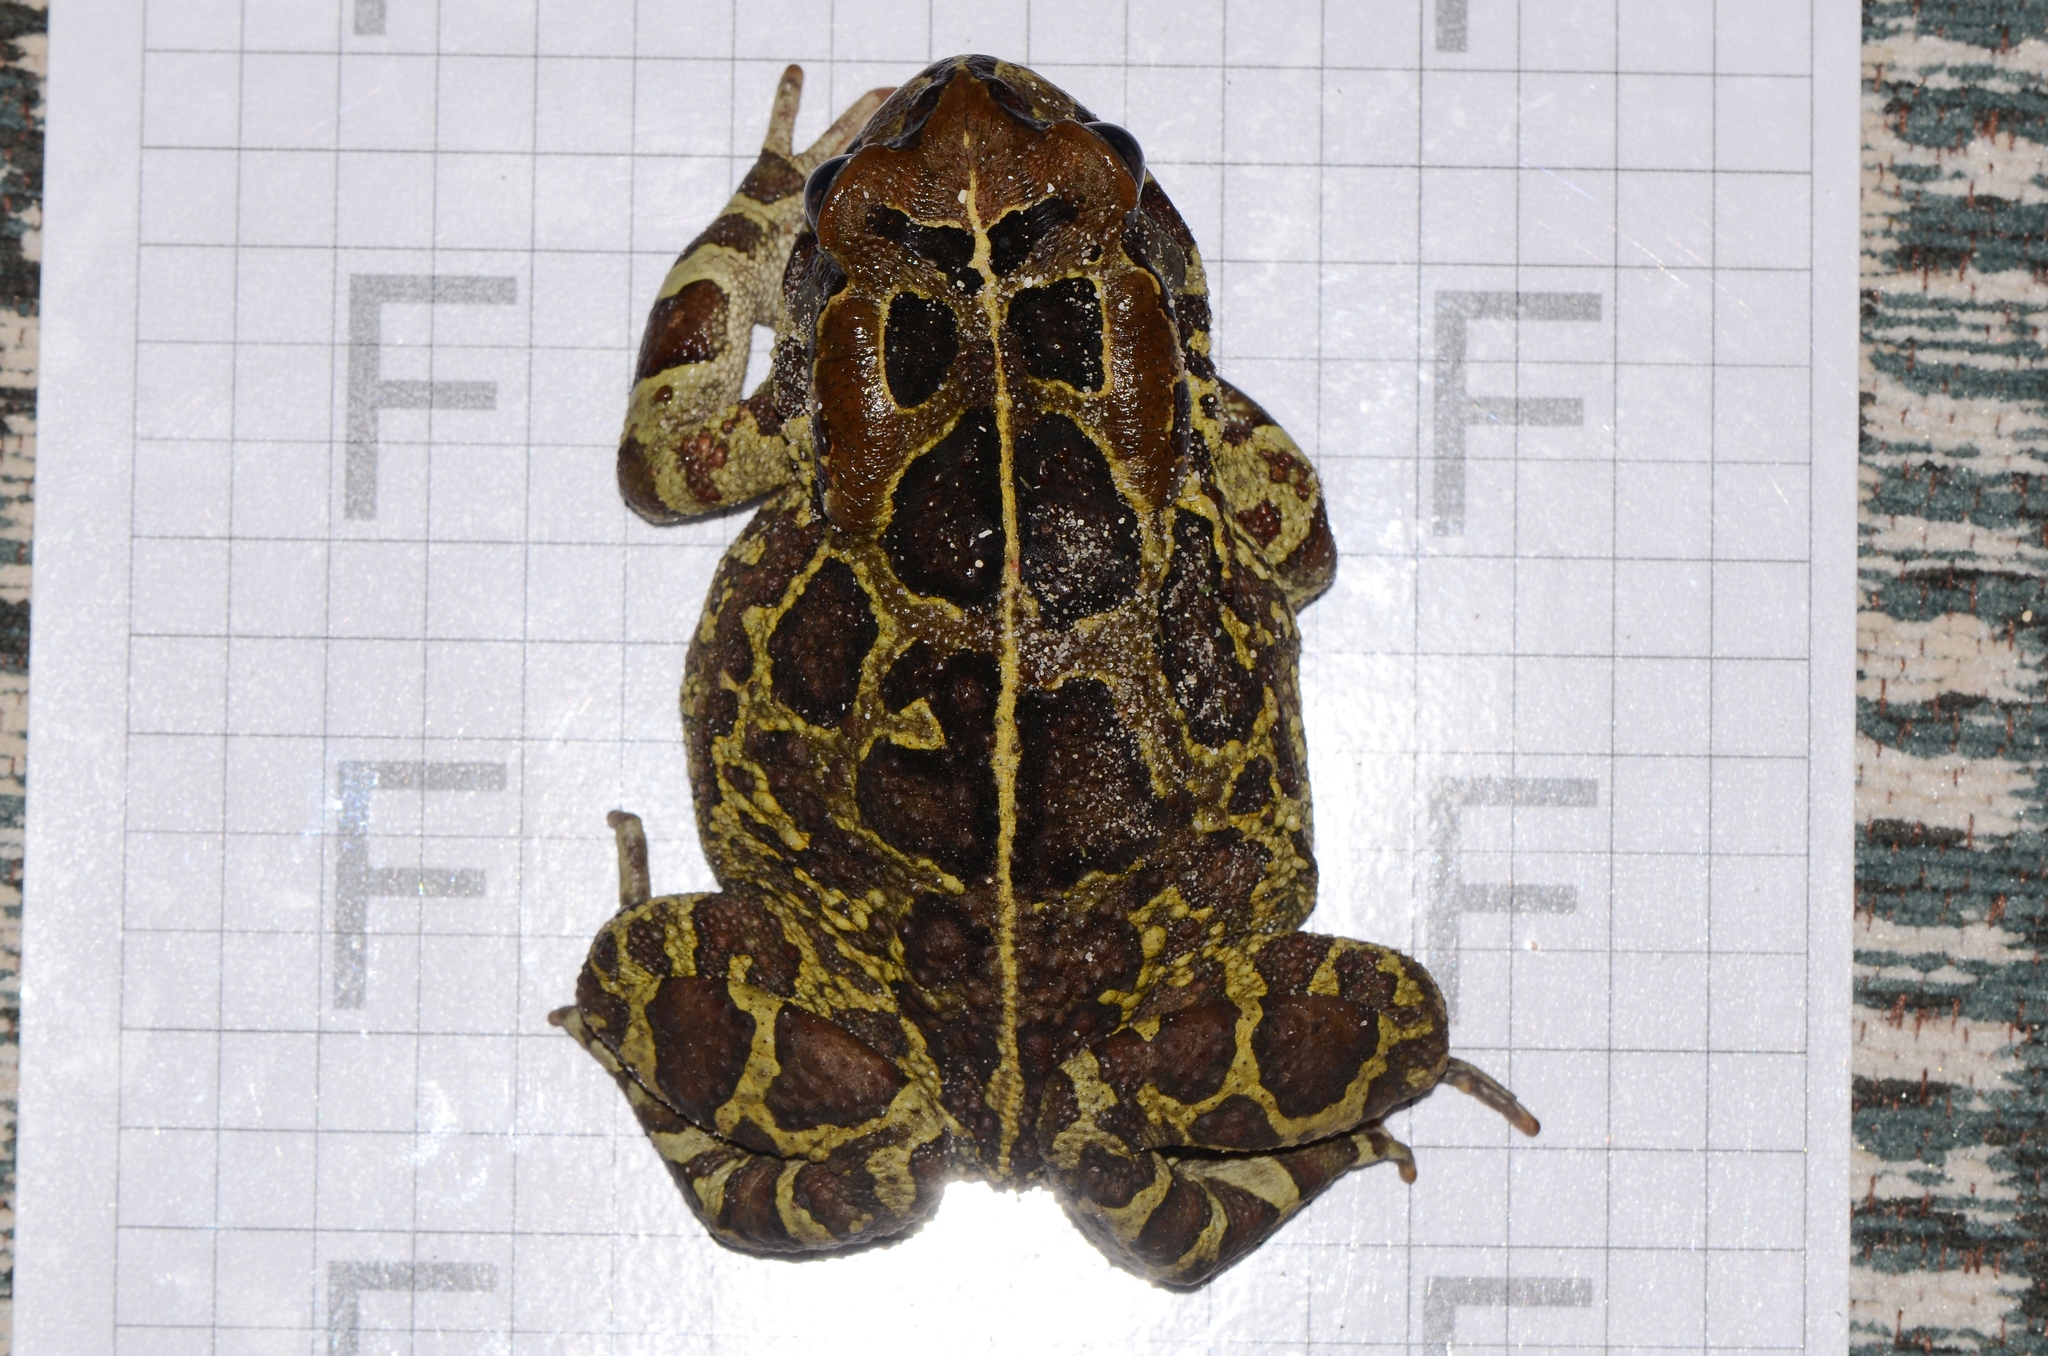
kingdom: Animalia
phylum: Chordata
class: Amphibia
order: Anura
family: Bufonidae
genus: Sclerophrys
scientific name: Sclerophrys pantherina
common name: Panther toad
